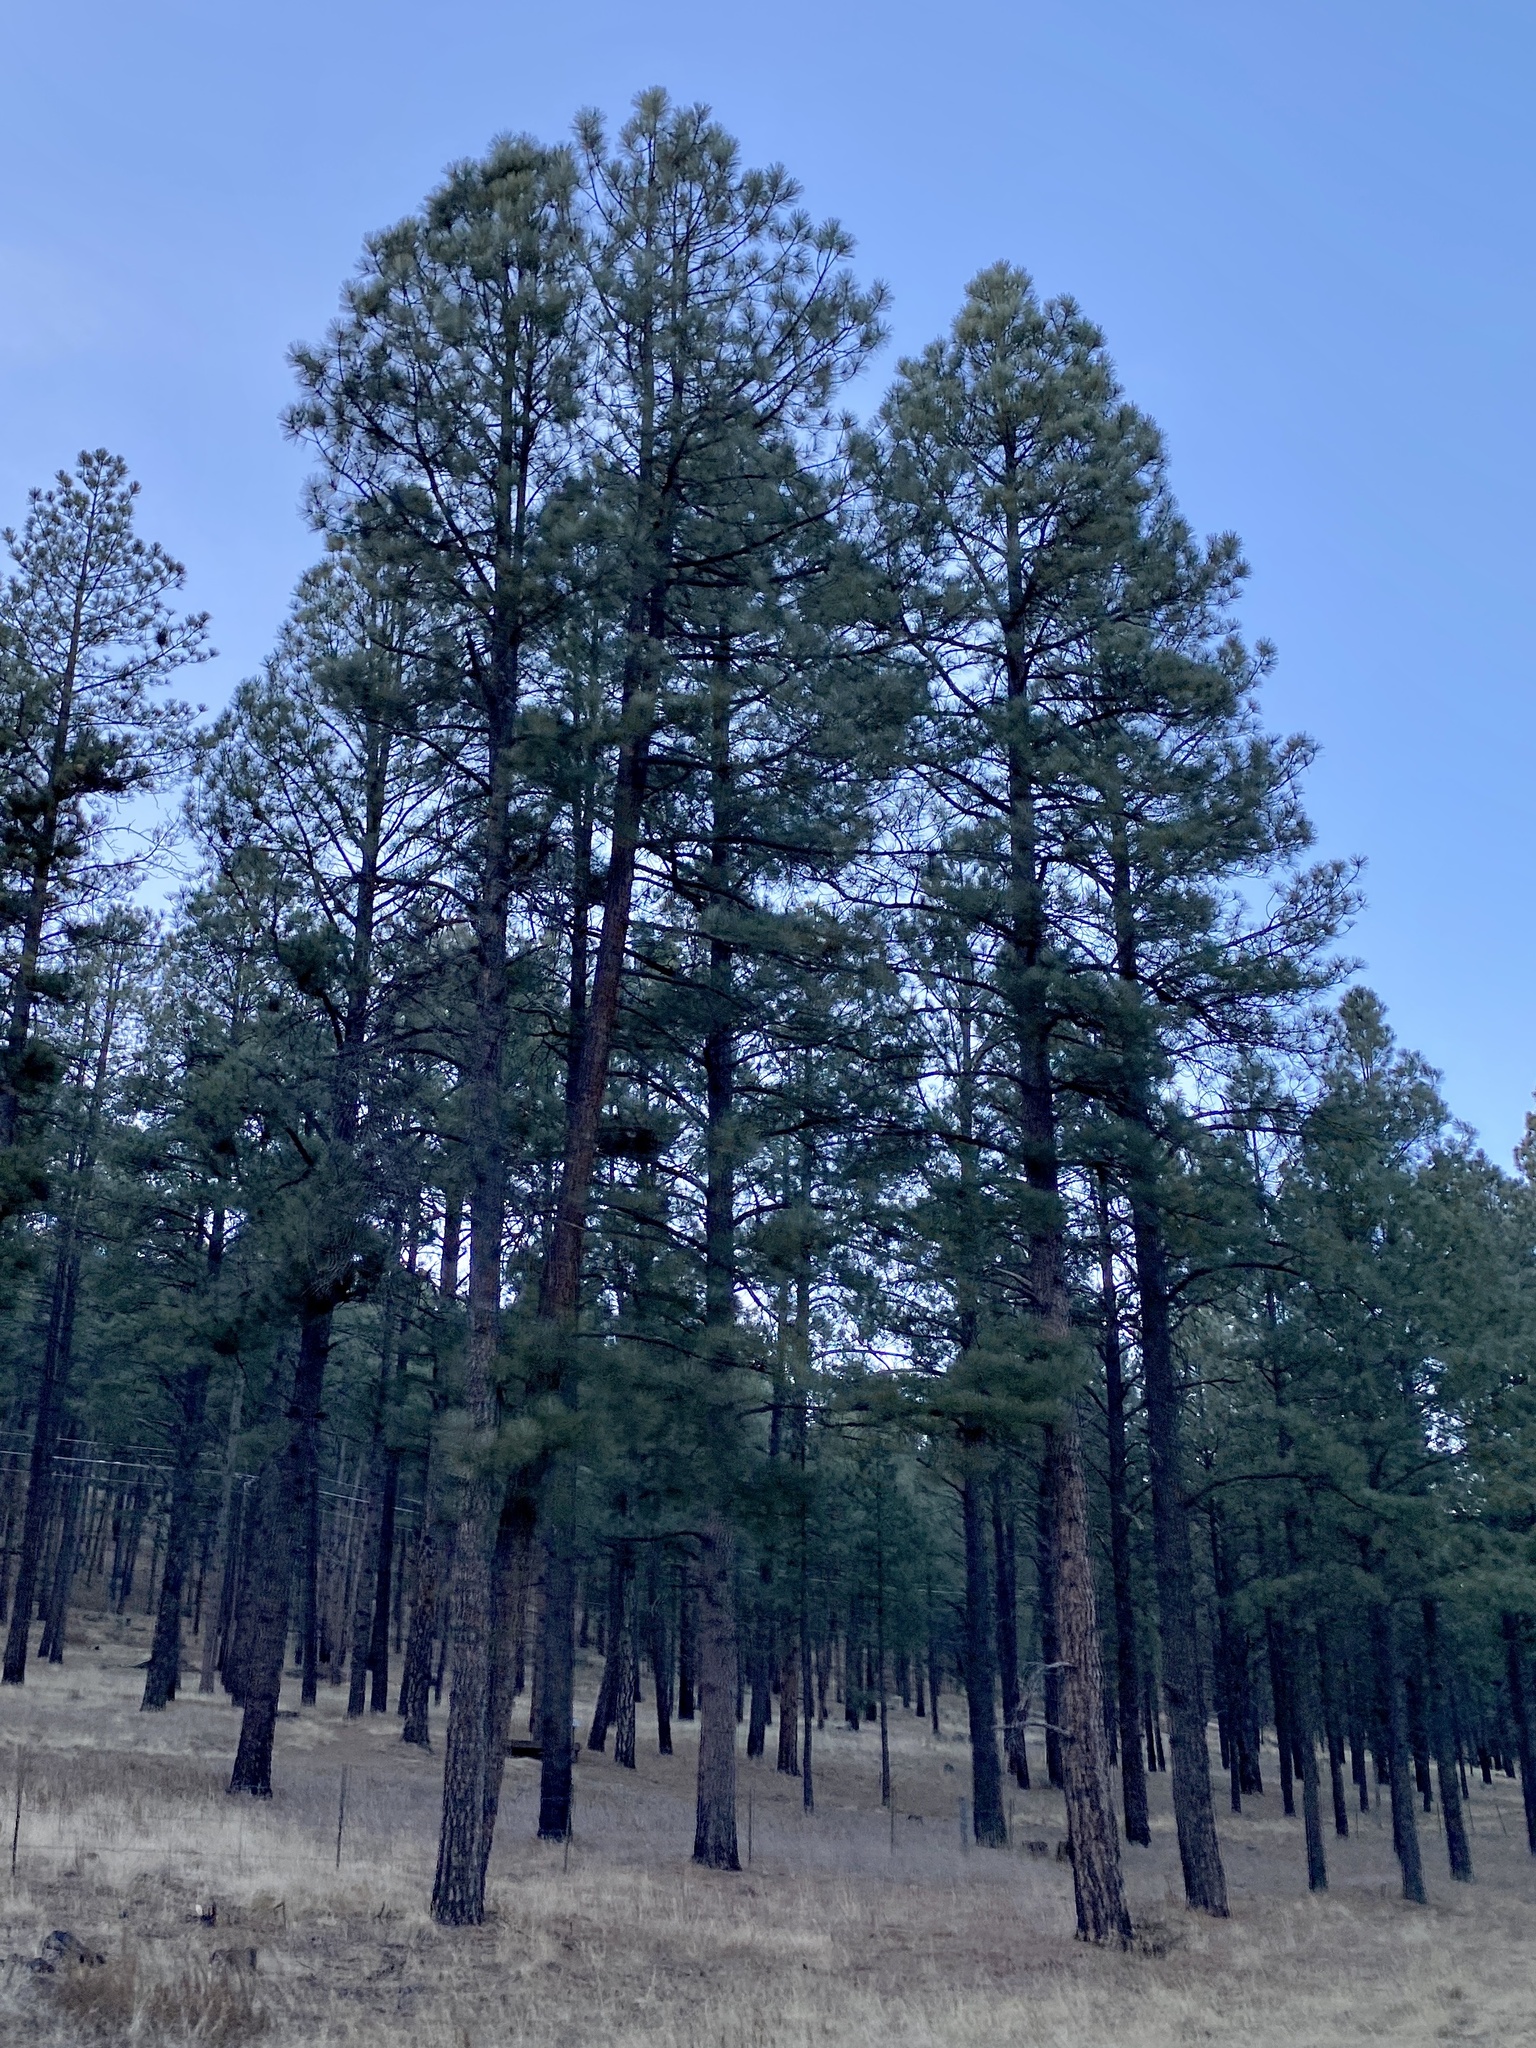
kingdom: Plantae
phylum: Tracheophyta
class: Pinopsida
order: Pinales
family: Pinaceae
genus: Pinus
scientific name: Pinus ponderosa
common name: Western yellow-pine
